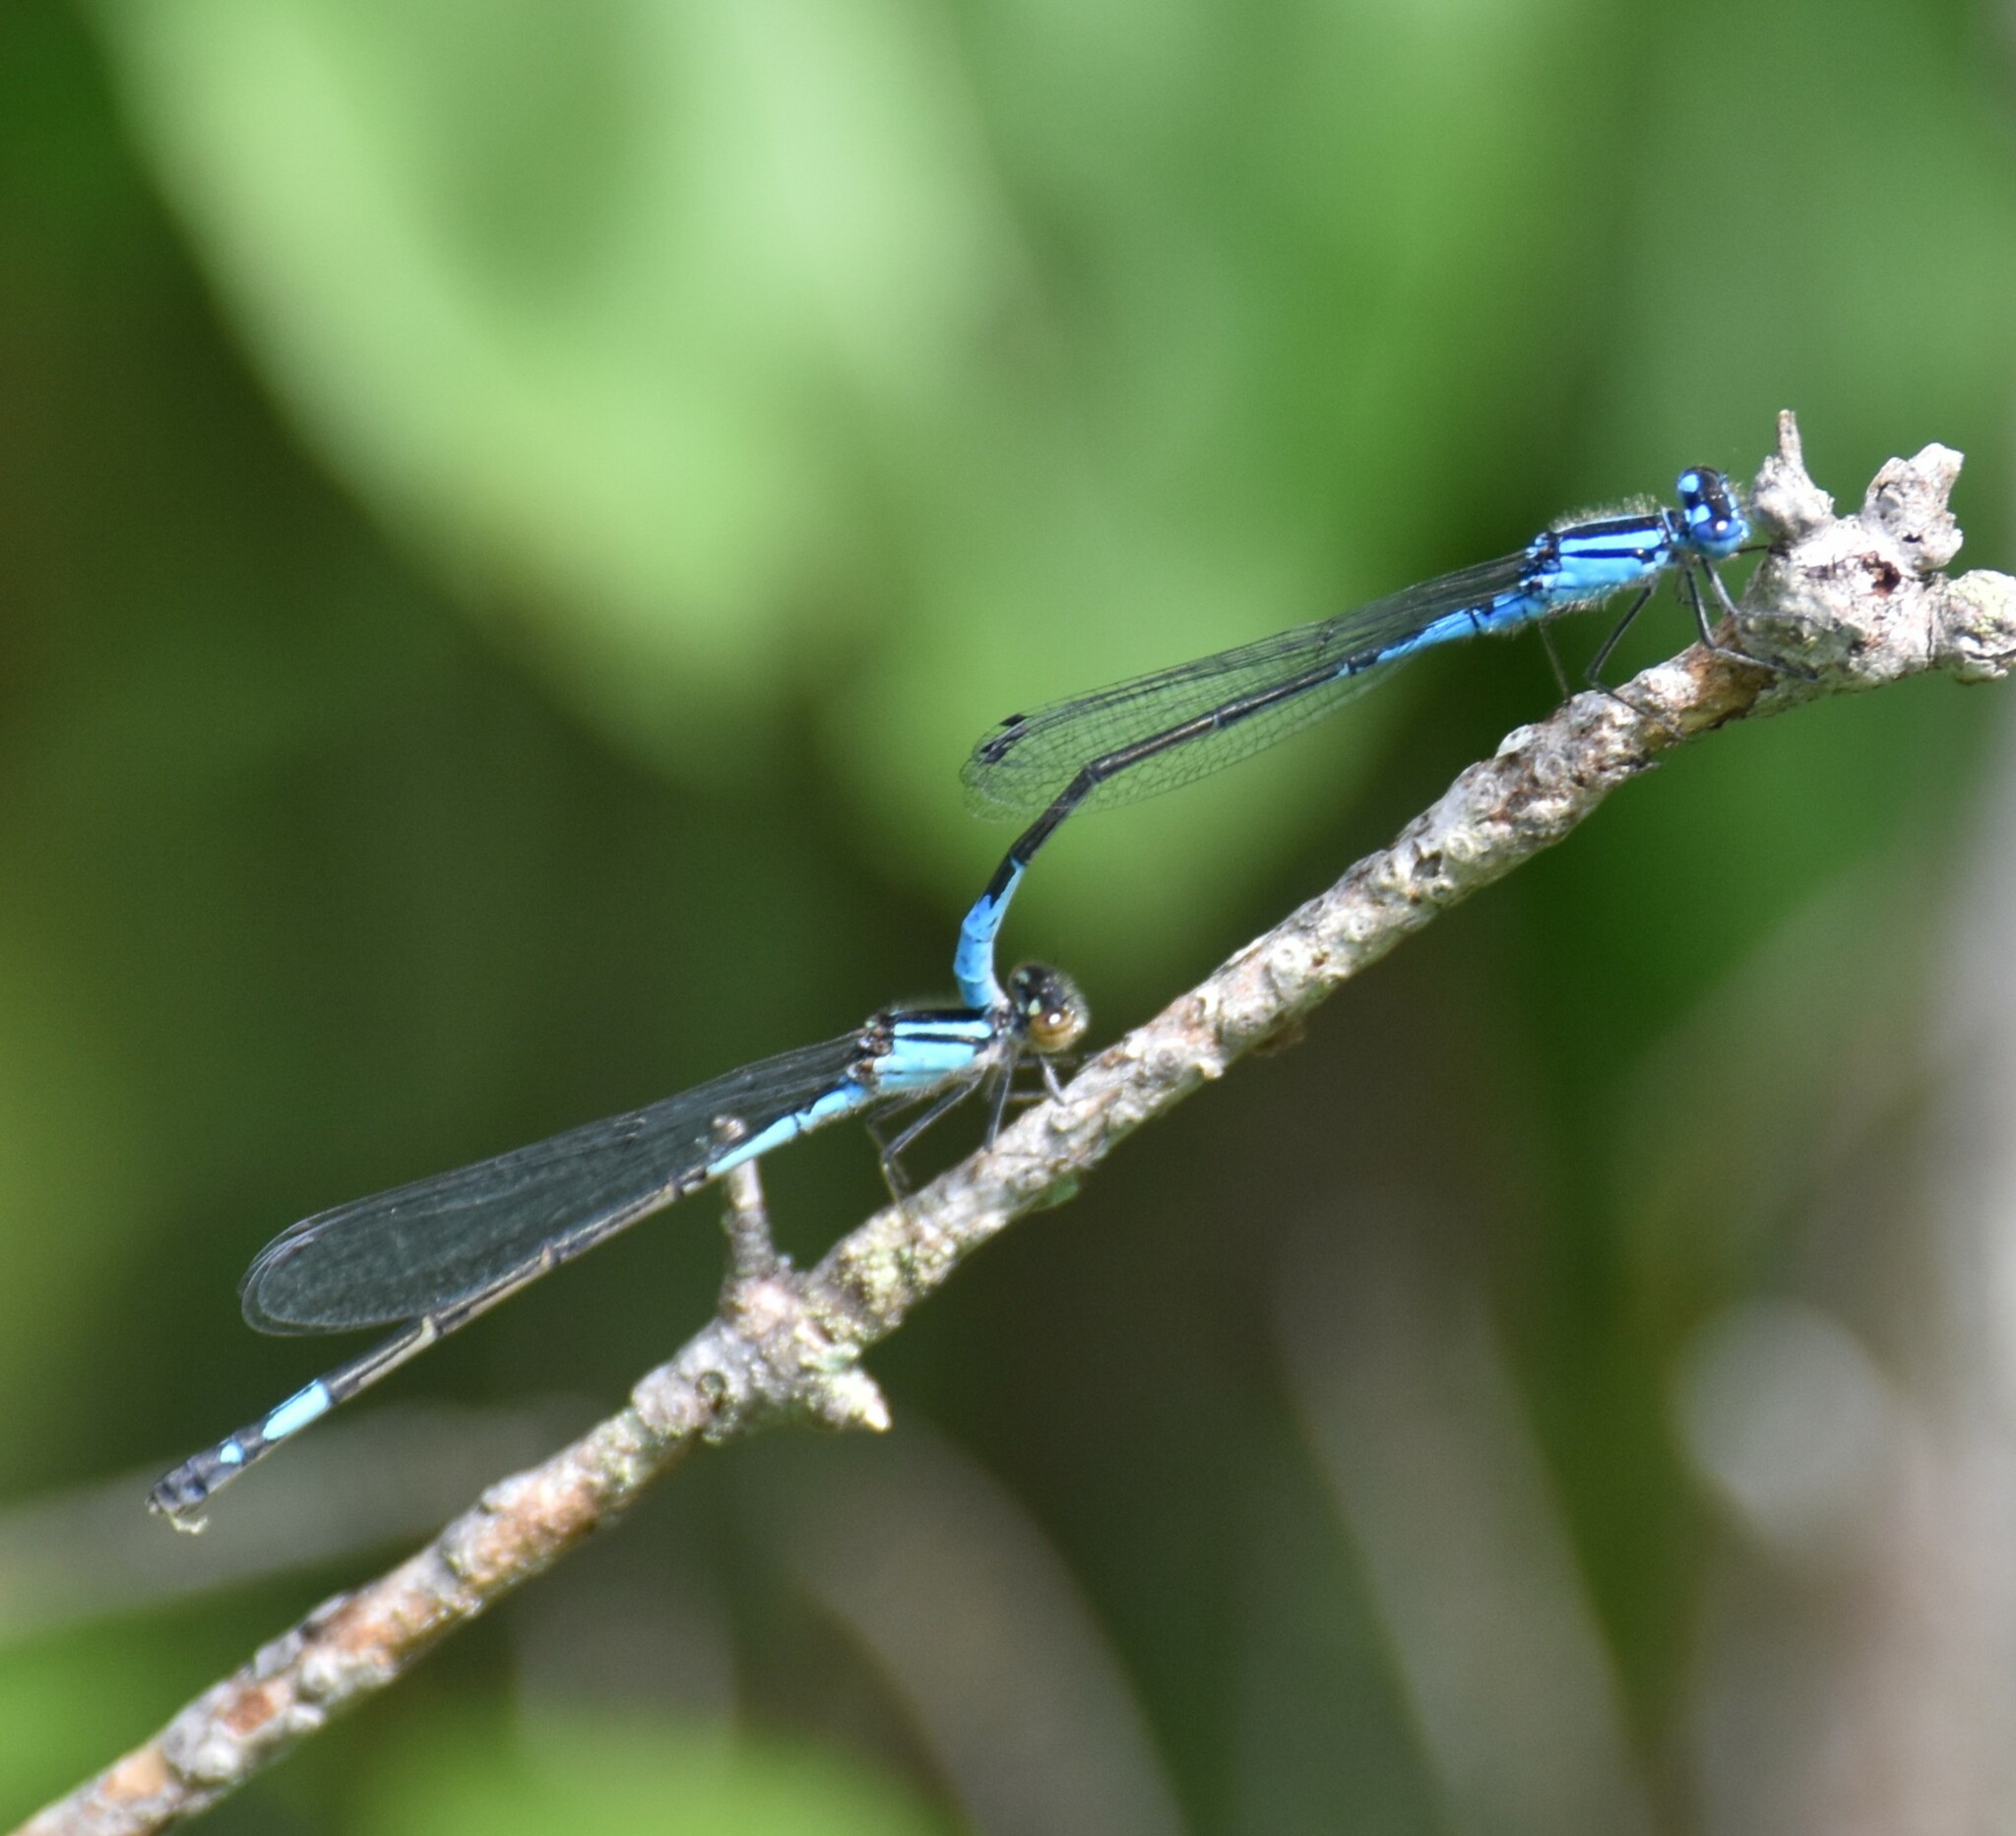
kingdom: Animalia
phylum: Arthropoda
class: Insecta
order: Odonata
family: Coenagrionidae
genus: Enallagma
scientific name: Enallagma aspersum
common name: Azure bluet
